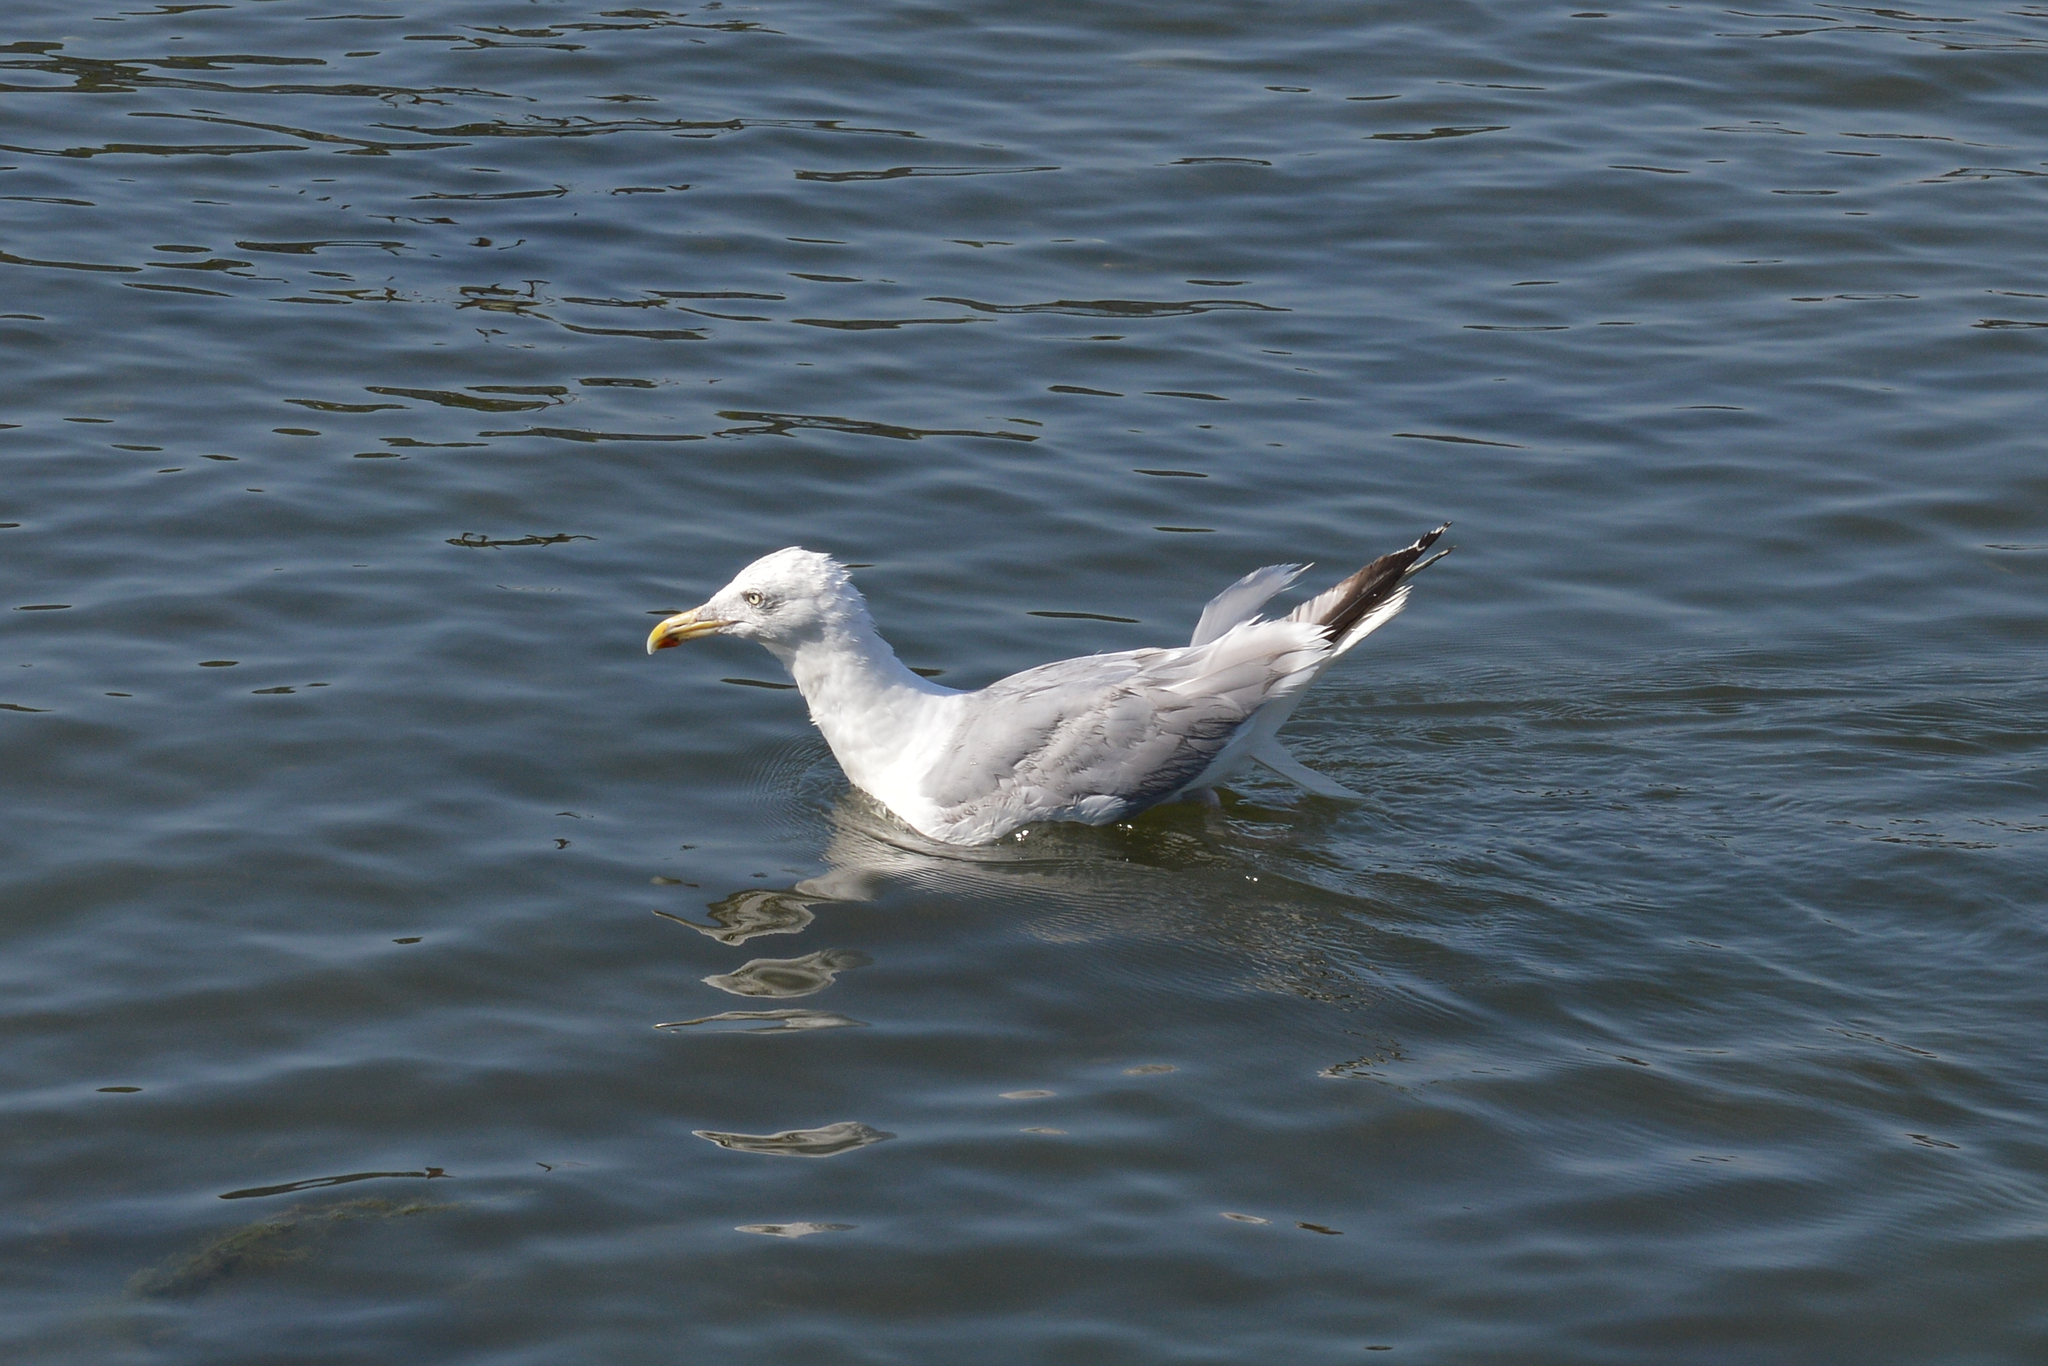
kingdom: Animalia
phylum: Chordata
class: Aves
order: Charadriiformes
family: Laridae
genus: Larus
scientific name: Larus argentatus
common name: Herring gull
